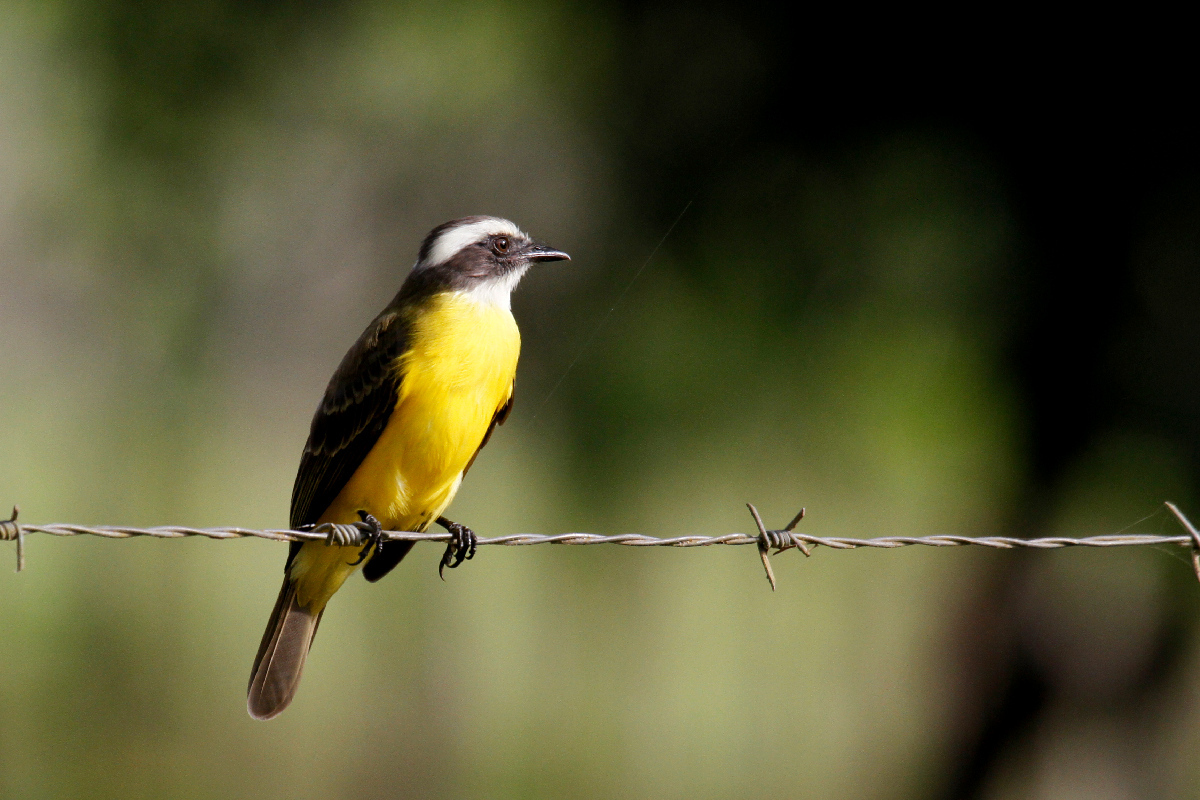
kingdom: Animalia
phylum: Chordata
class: Aves
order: Passeriformes
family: Tyrannidae
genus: Myiozetetes
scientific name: Myiozetetes similis
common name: Social flycatcher
